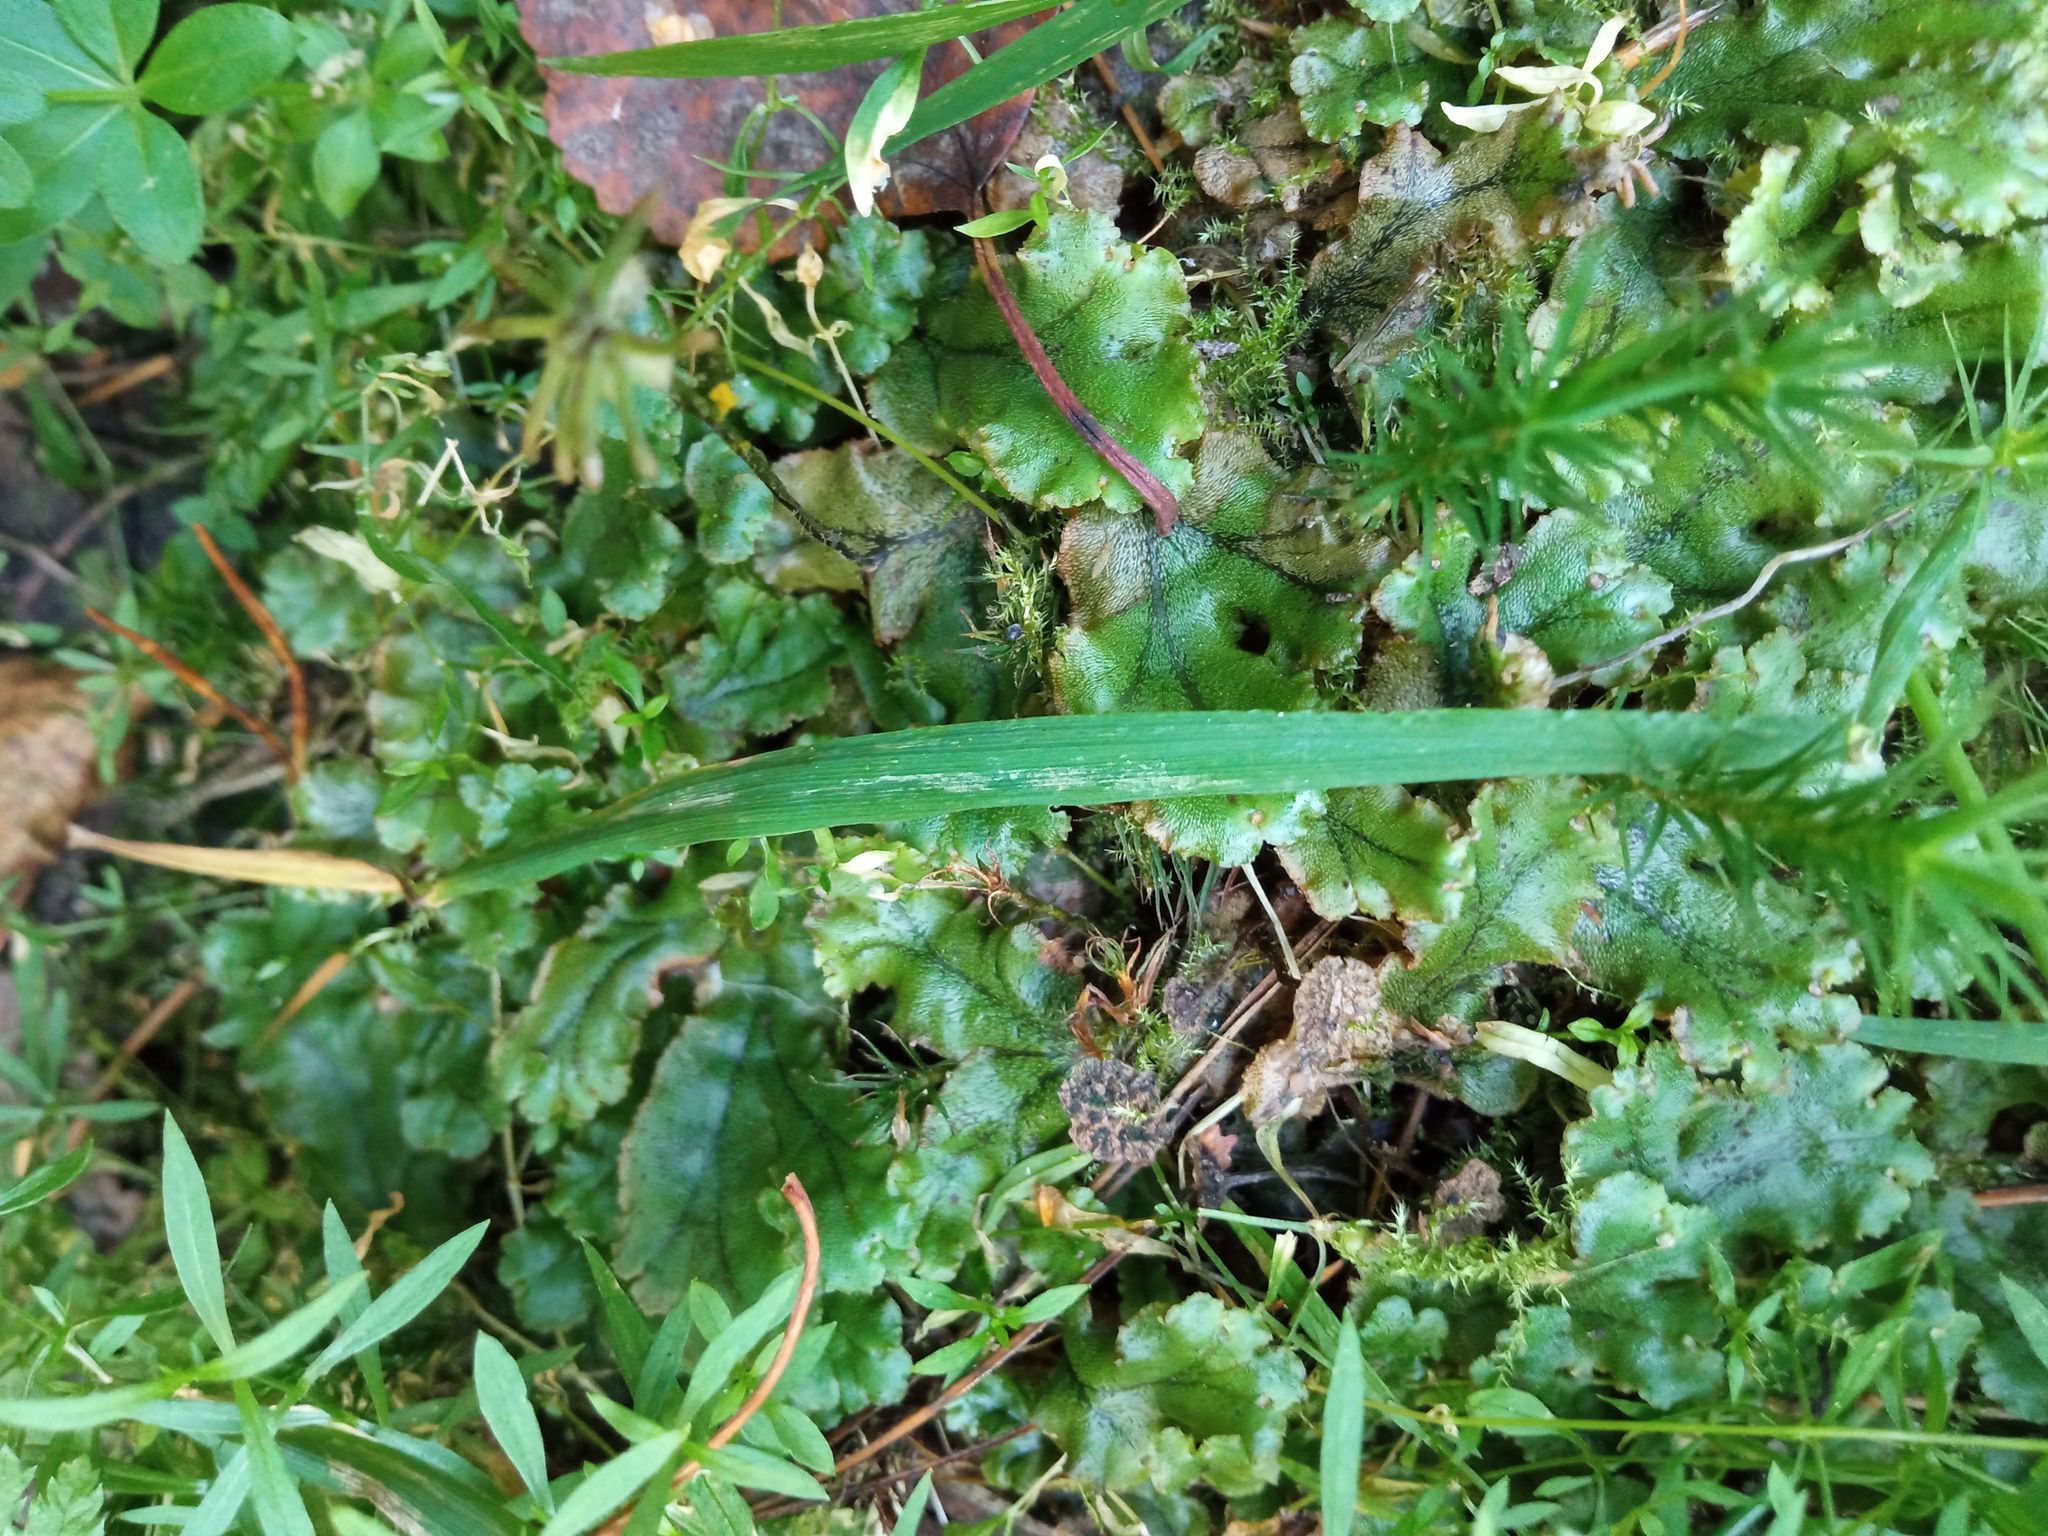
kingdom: Plantae
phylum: Marchantiophyta
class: Marchantiopsida
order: Marchantiales
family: Marchantiaceae
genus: Marchantia
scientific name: Marchantia polymorpha
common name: Common liverwort
